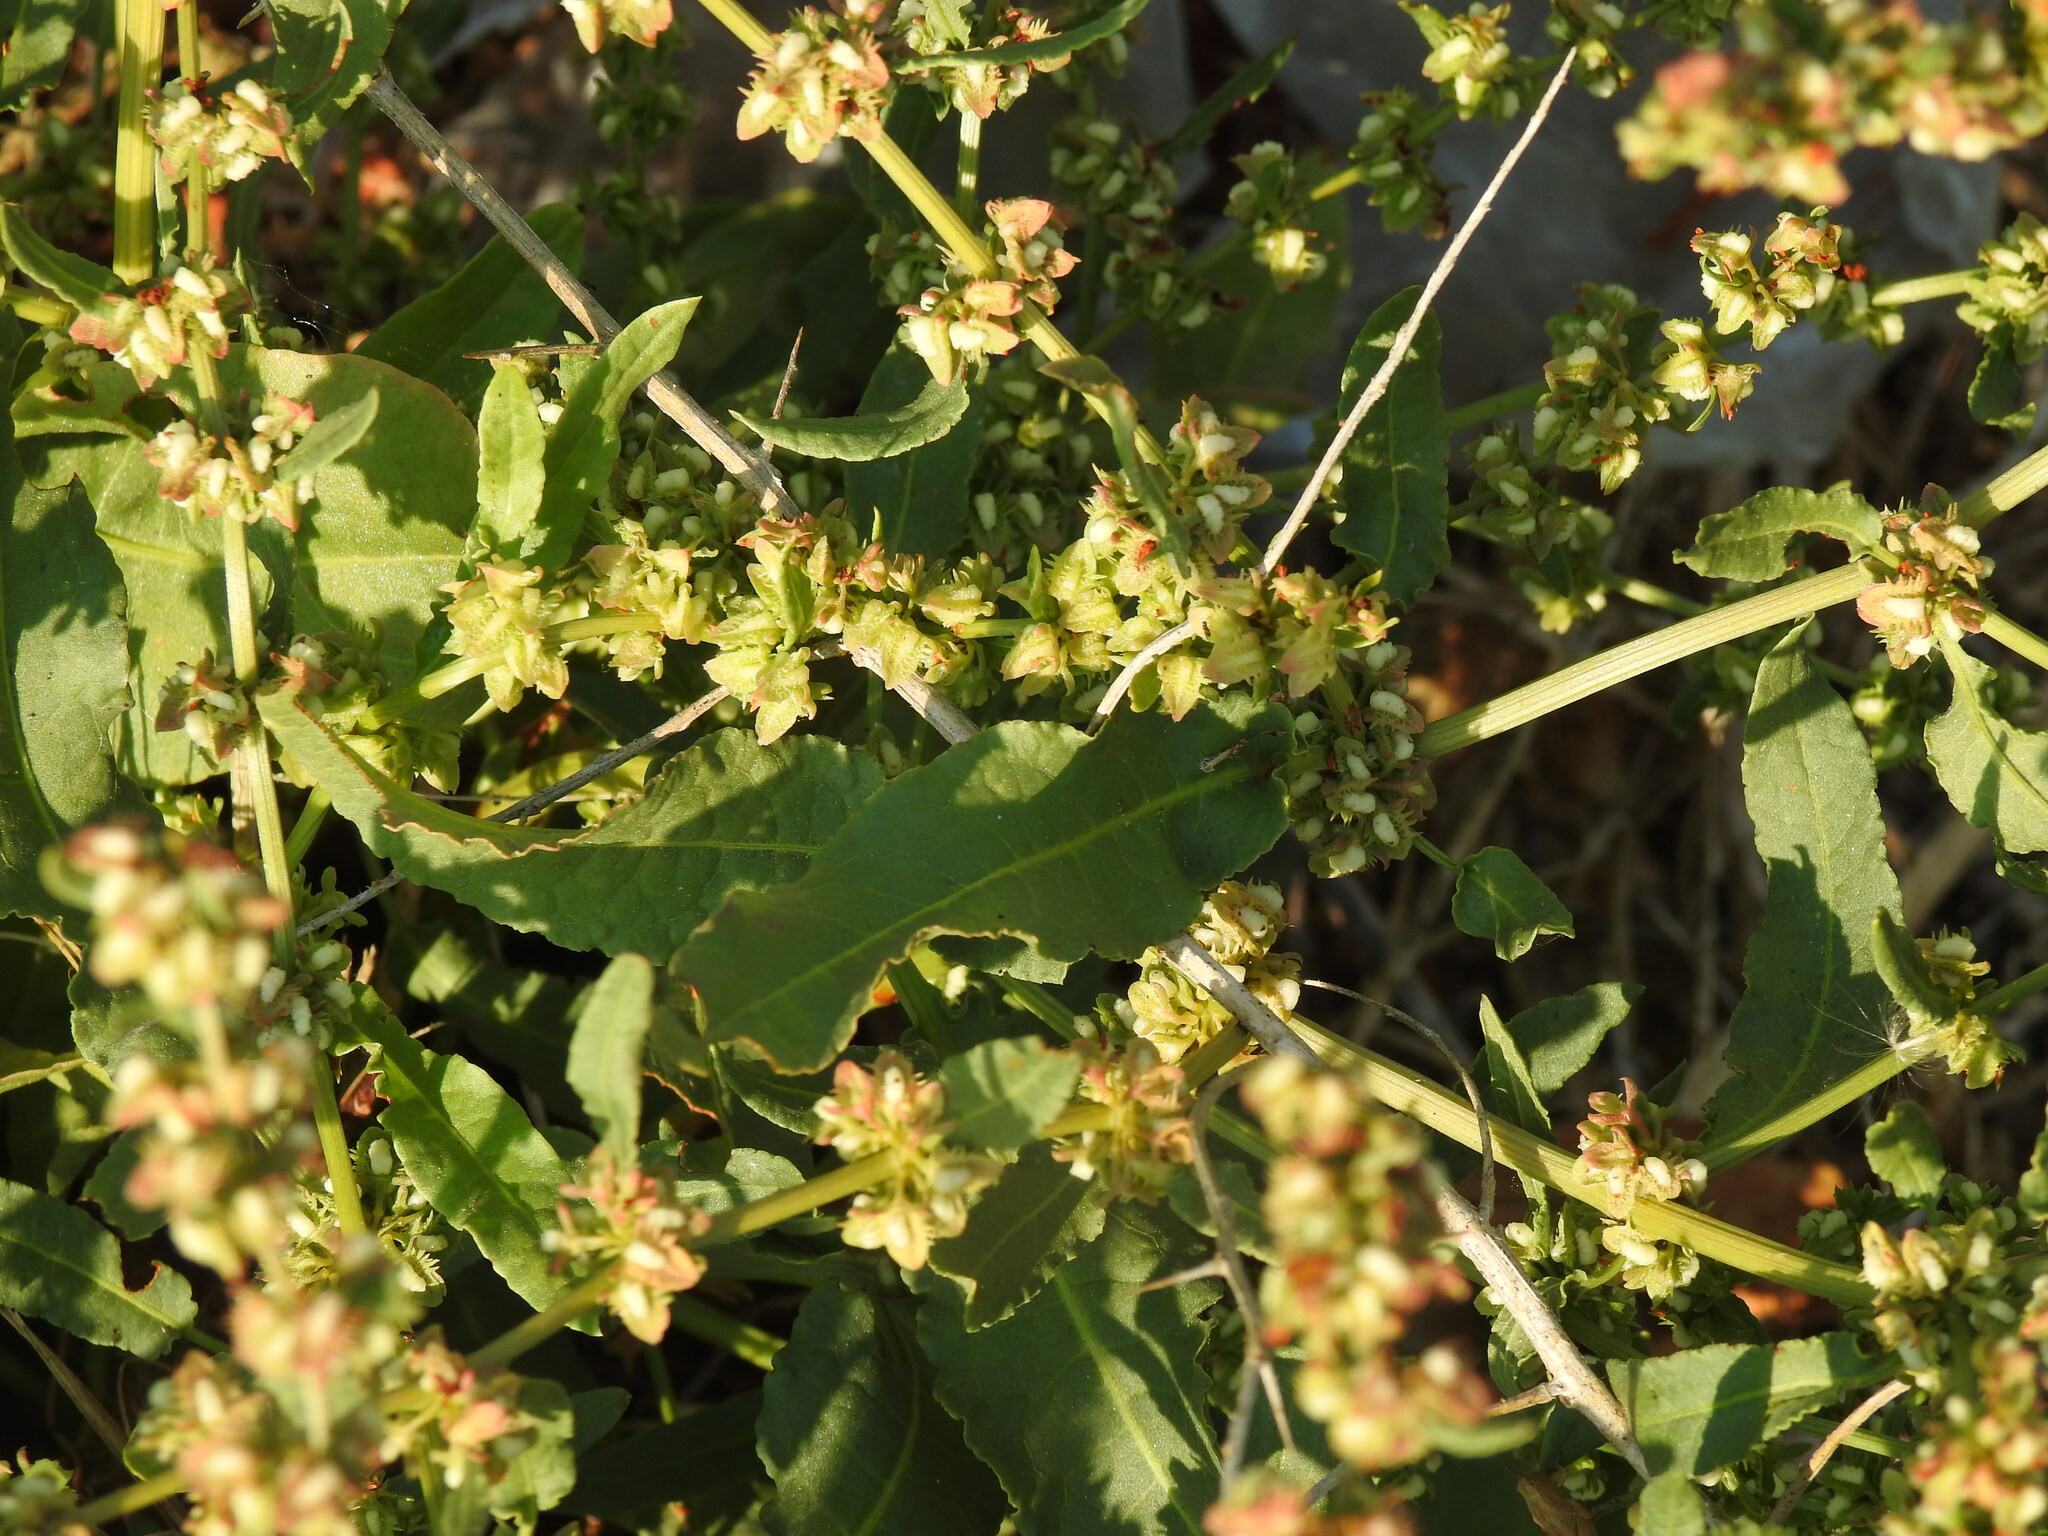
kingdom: Plantae
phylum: Tracheophyta
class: Magnoliopsida
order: Caryophyllales
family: Polygonaceae
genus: Rumex
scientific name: Rumex pulcher
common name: Fiddle dock
